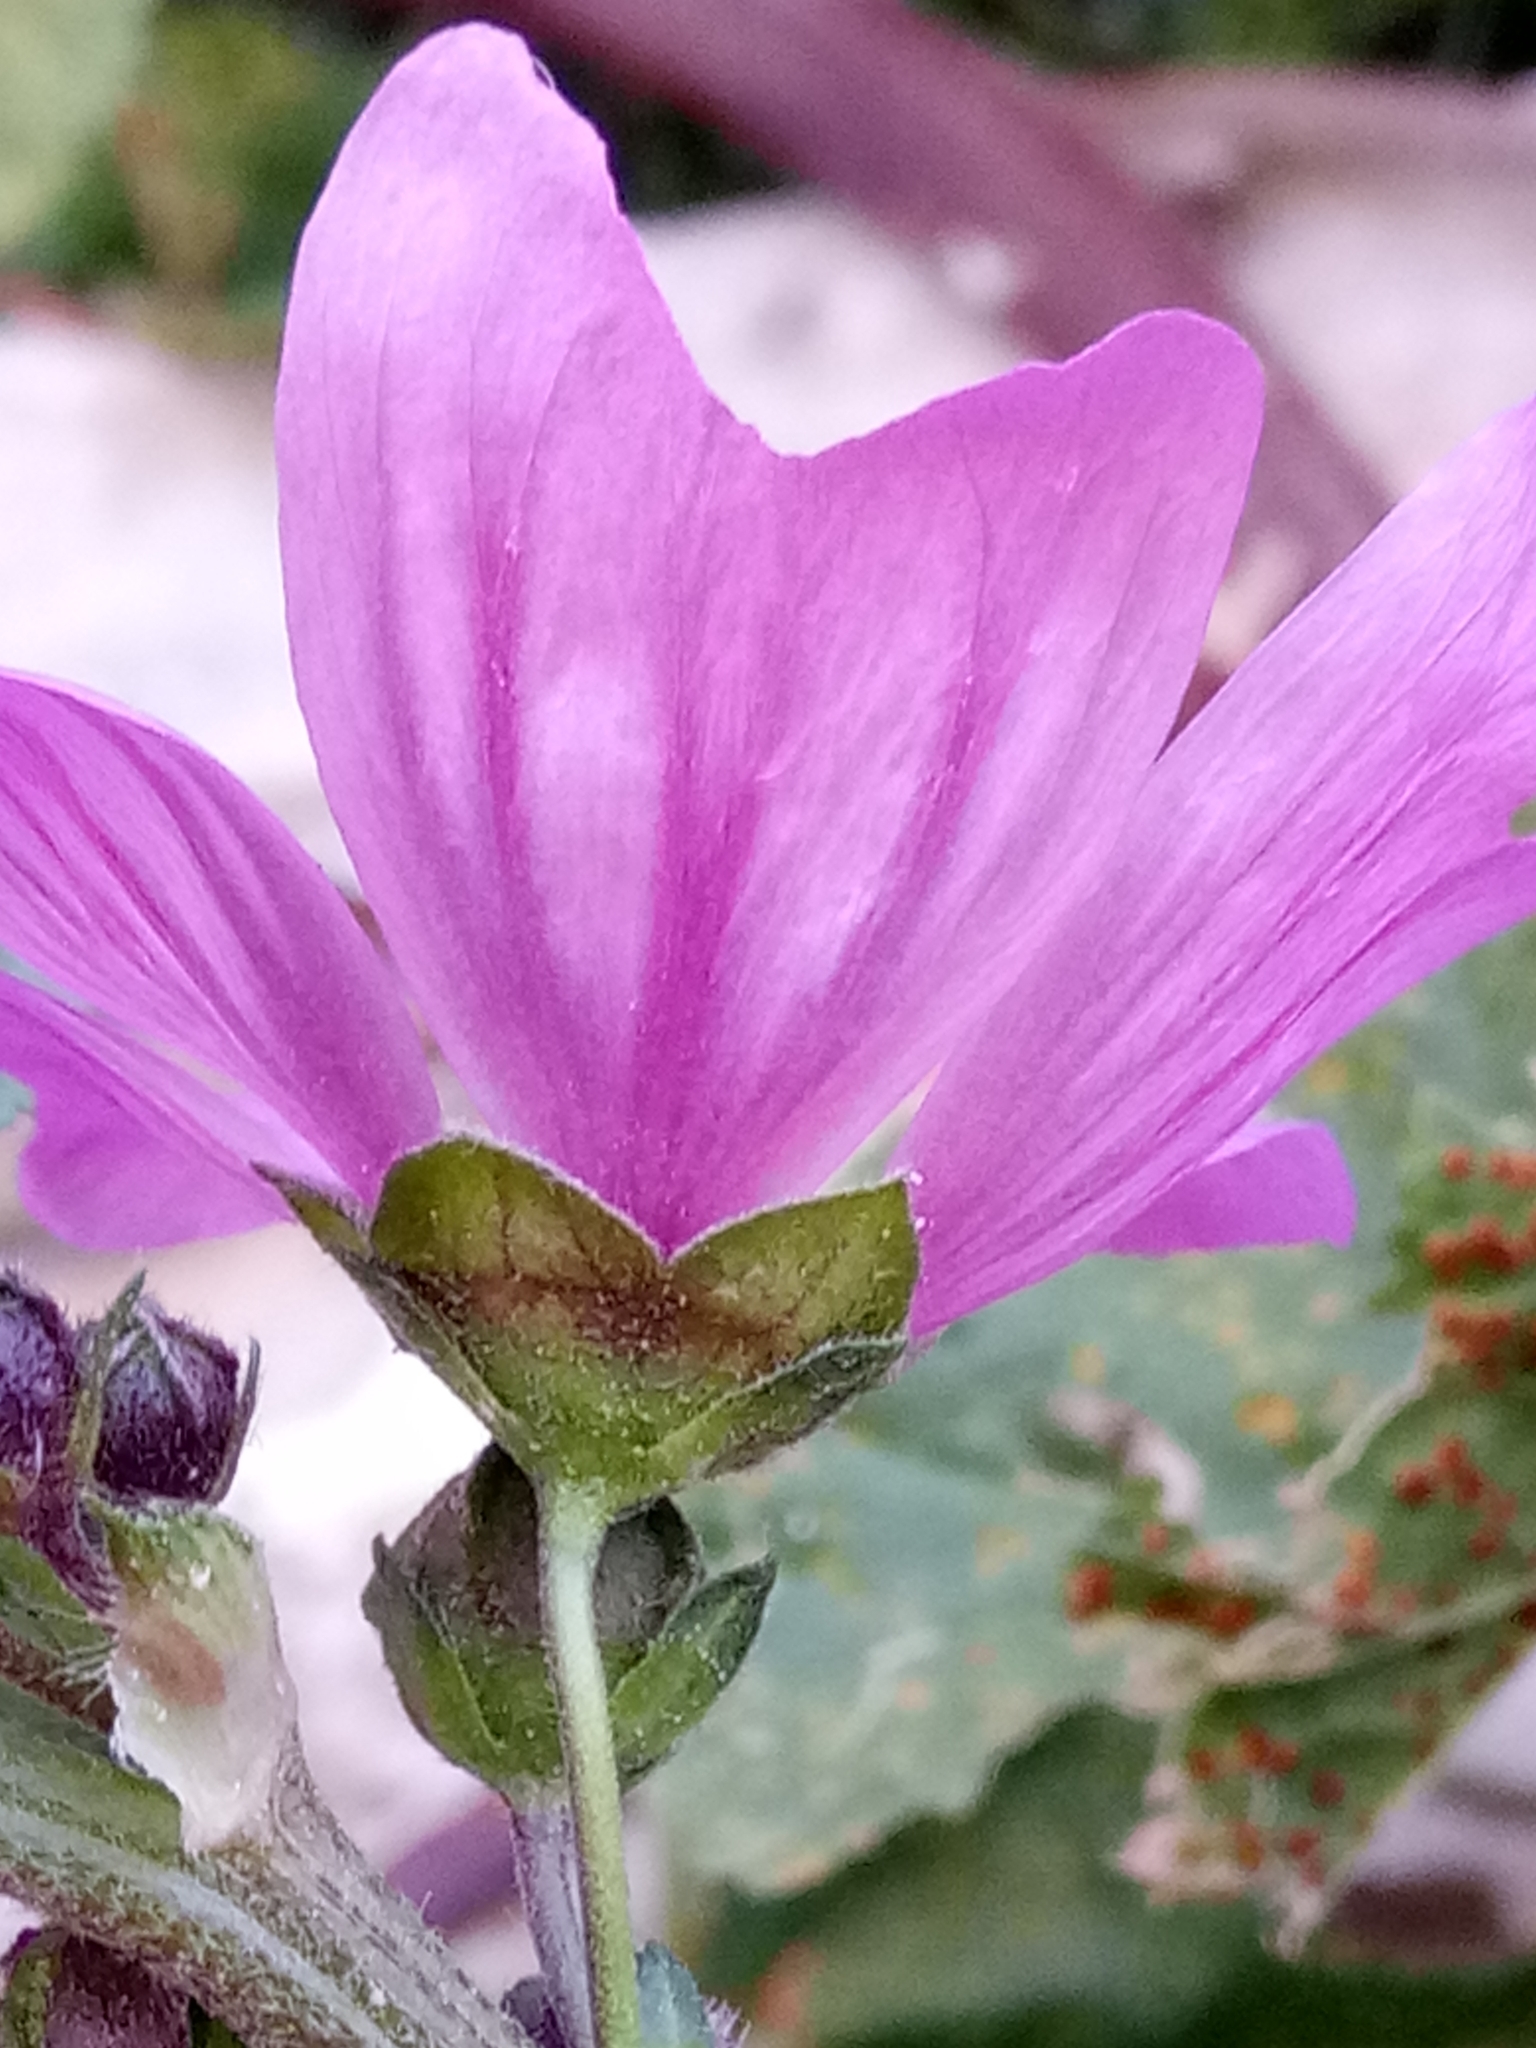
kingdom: Plantae
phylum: Tracheophyta
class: Magnoliopsida
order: Malvales
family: Malvaceae
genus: Malva
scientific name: Malva sylvestris
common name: Common mallow
